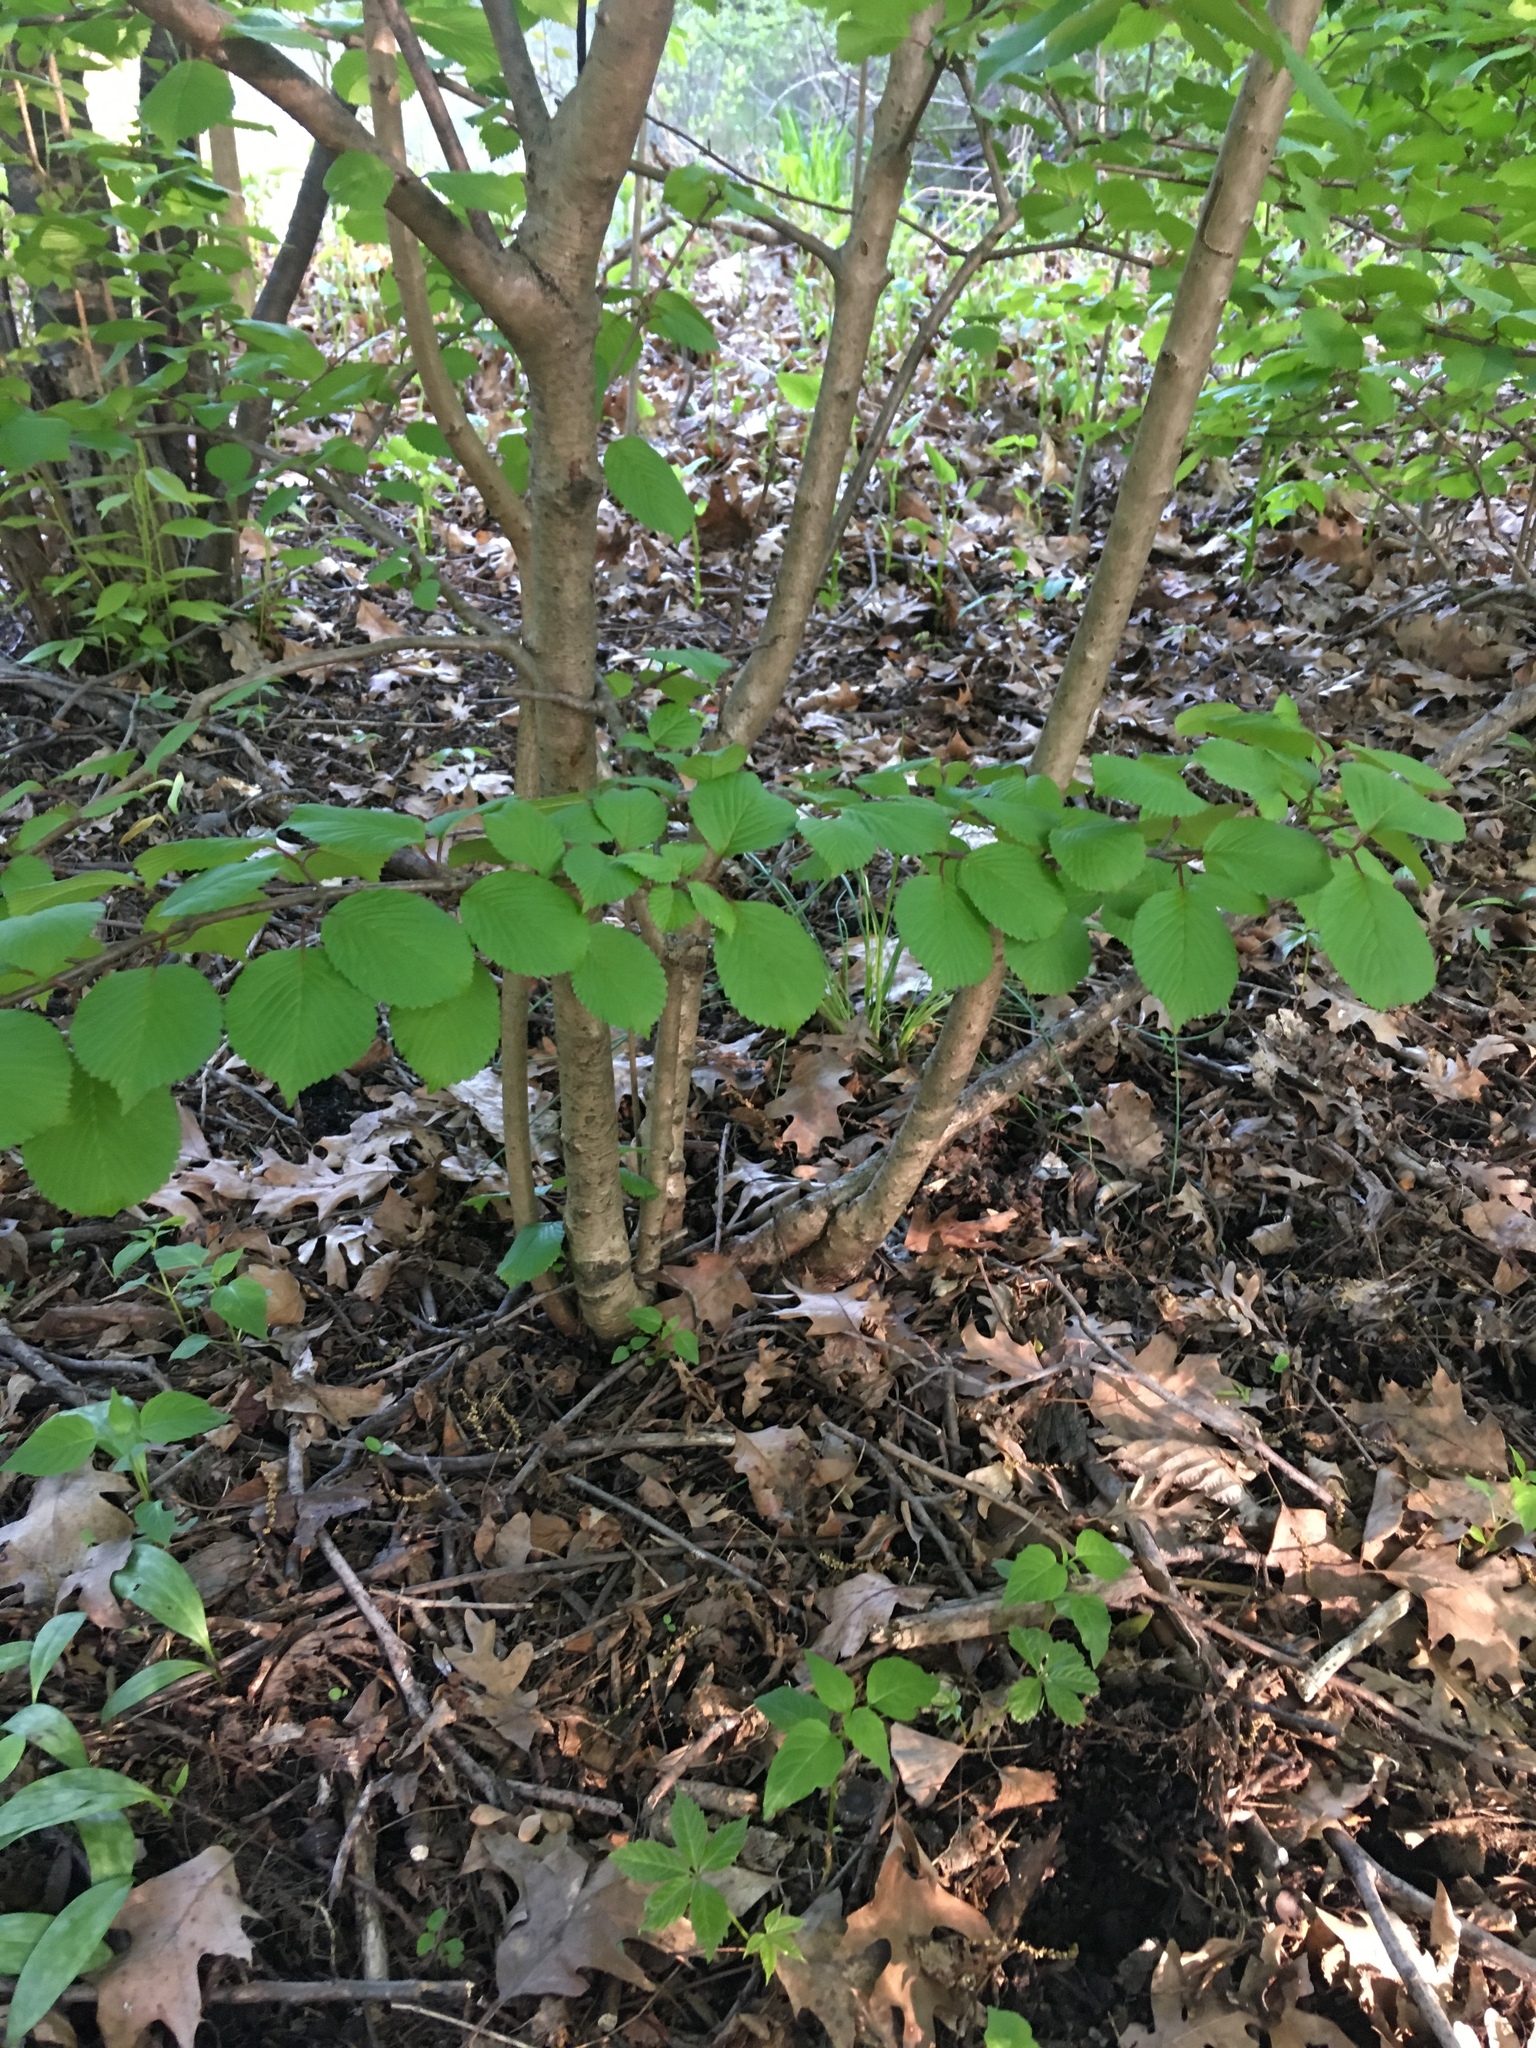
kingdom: Plantae
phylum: Tracheophyta
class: Magnoliopsida
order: Dipsacales
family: Viburnaceae
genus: Viburnum
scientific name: Viburnum plicatum
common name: Japanese snowball
